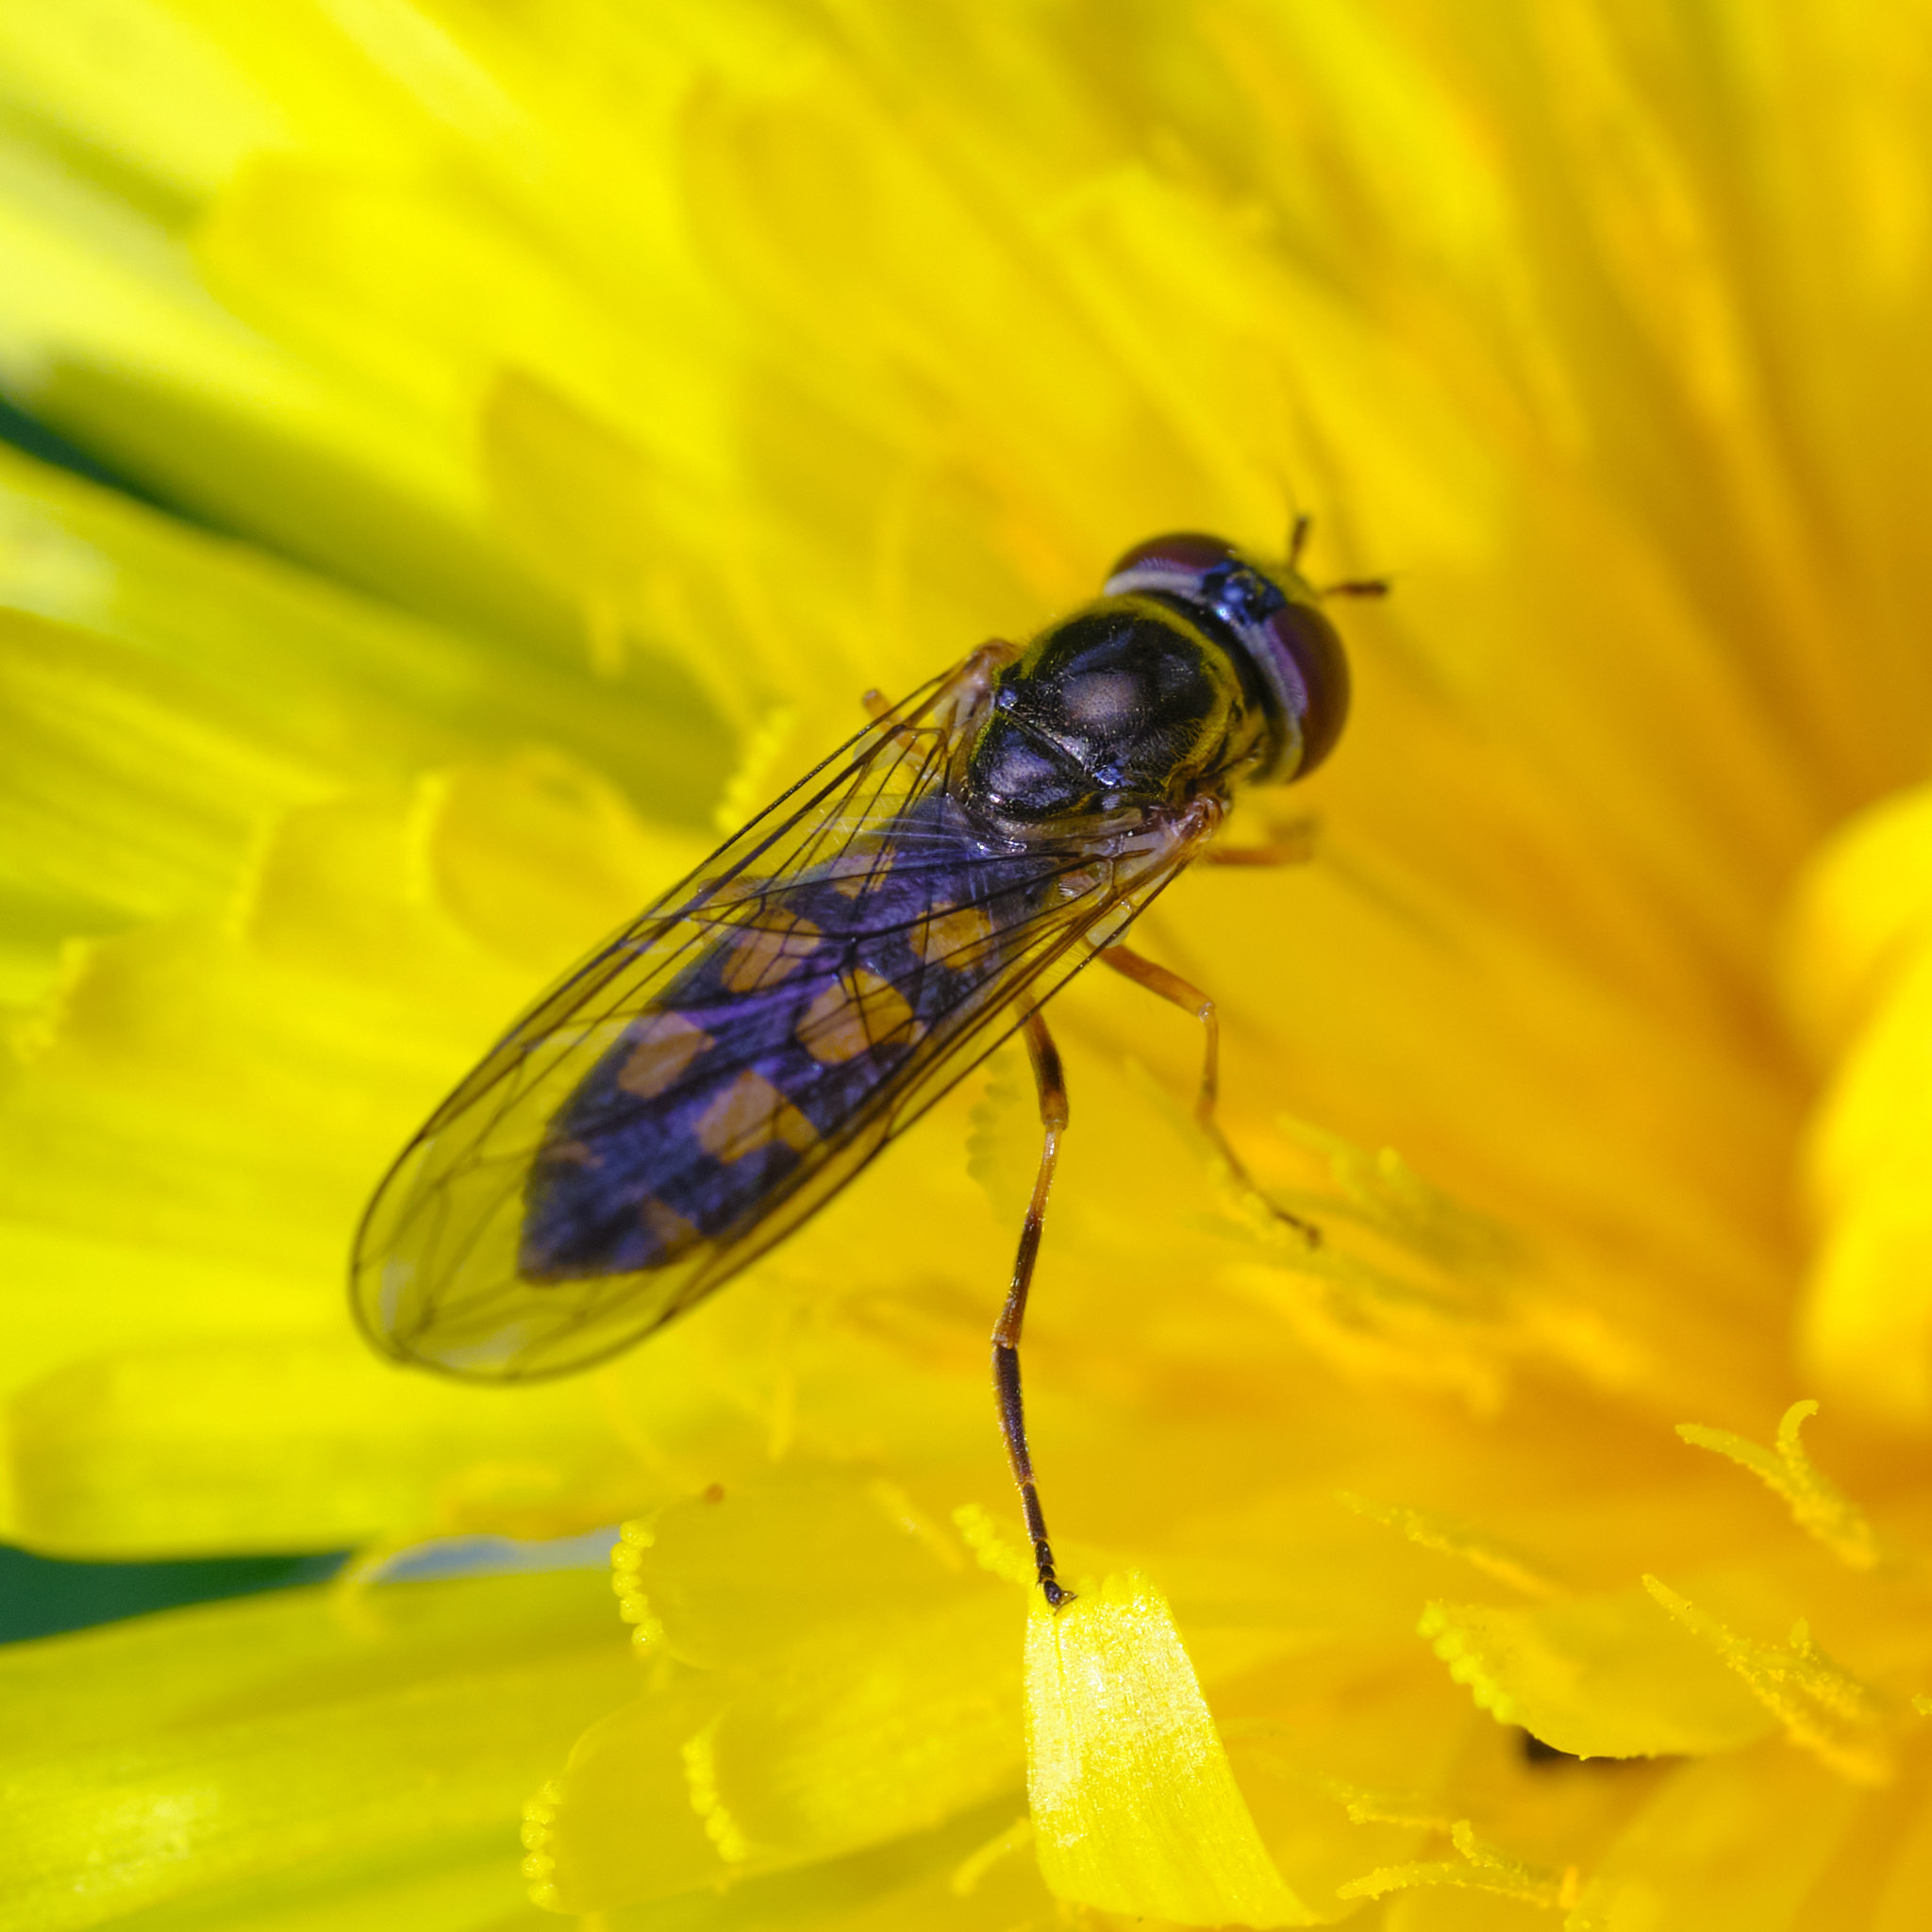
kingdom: Animalia
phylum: Arthropoda
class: Insecta
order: Diptera
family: Syrphidae
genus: Melanostoma
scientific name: Melanostoma
